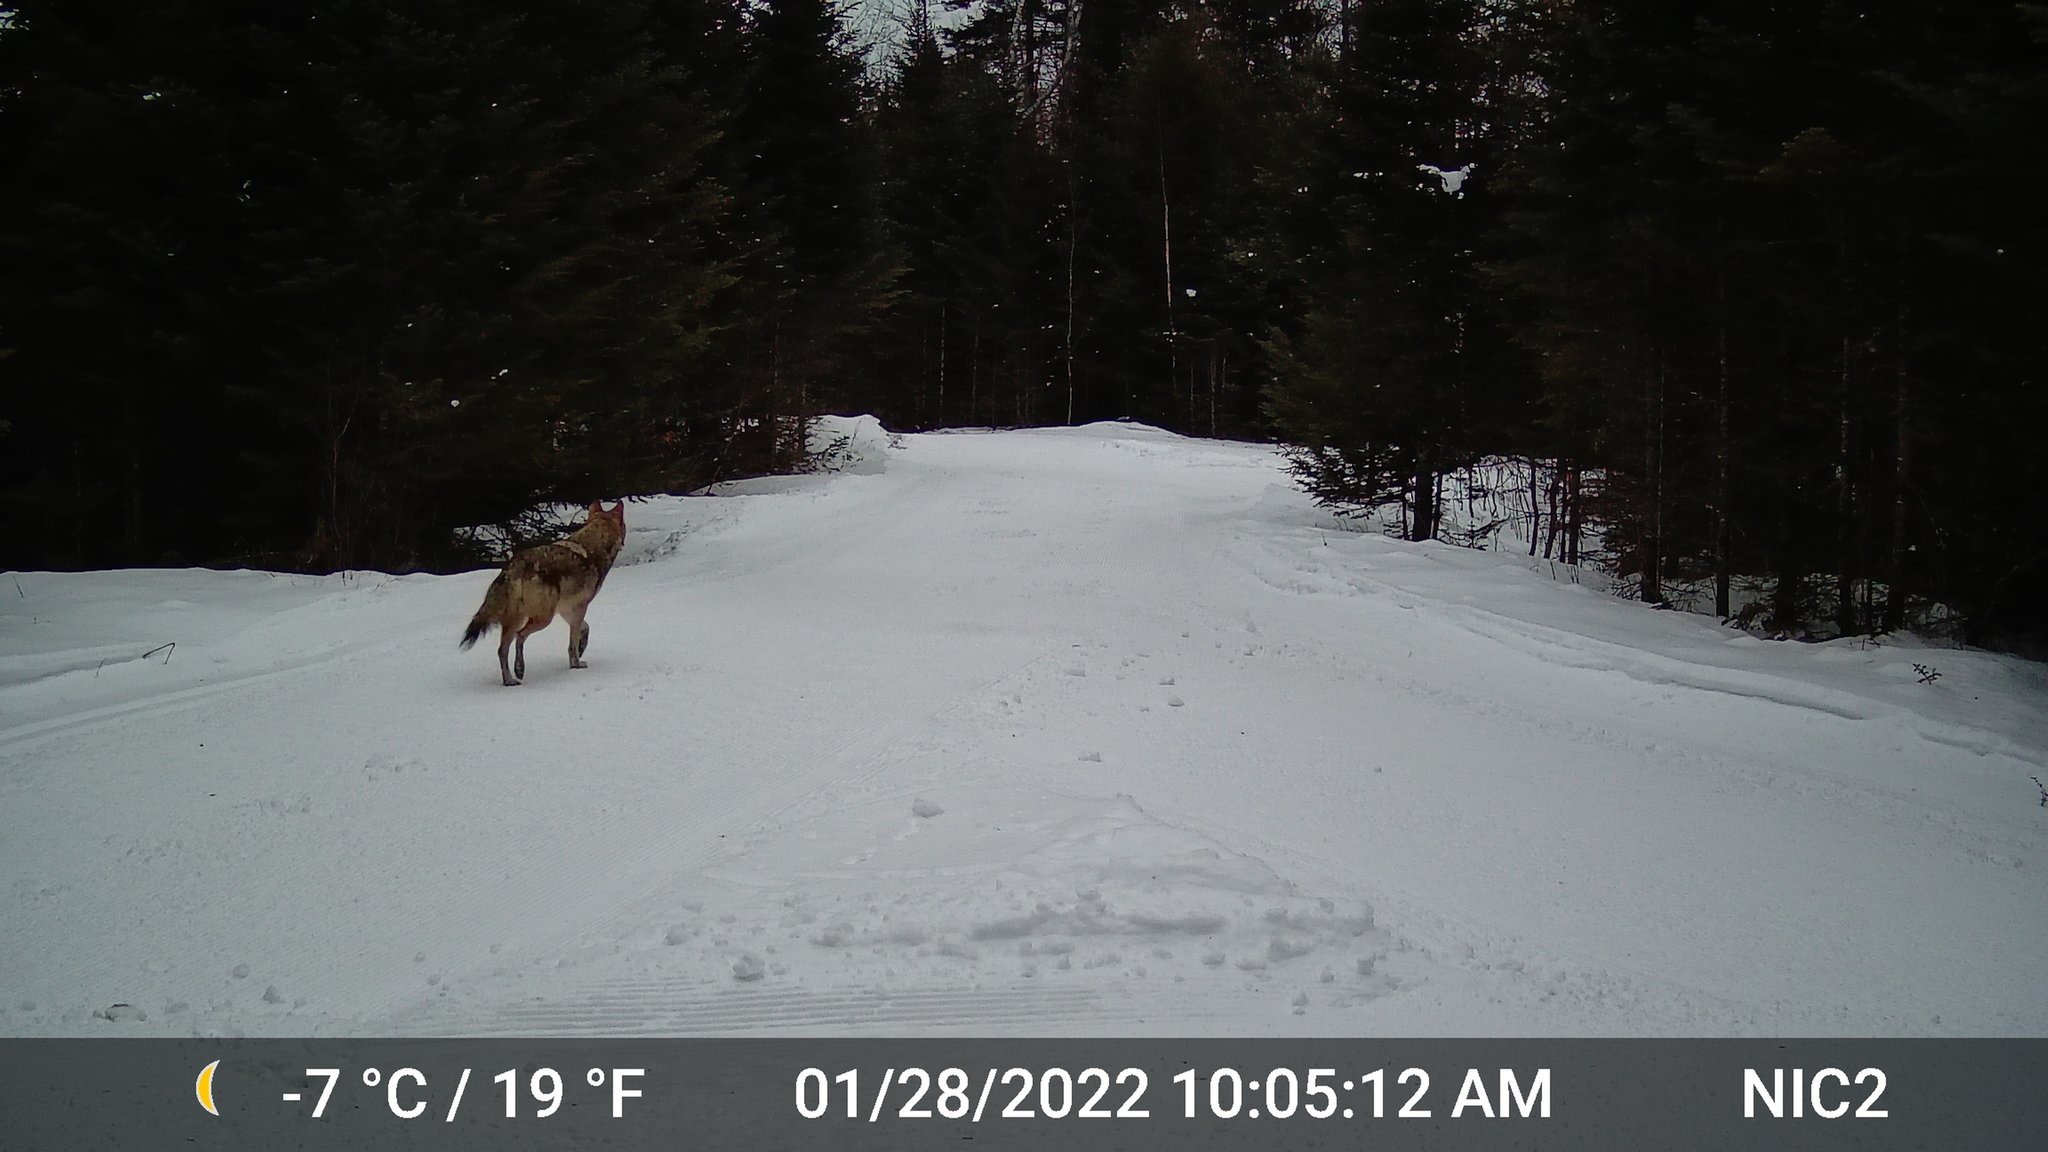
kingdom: Animalia
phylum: Chordata
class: Mammalia
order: Carnivora
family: Canidae
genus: Canis
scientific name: Canis latrans
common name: Coyote
